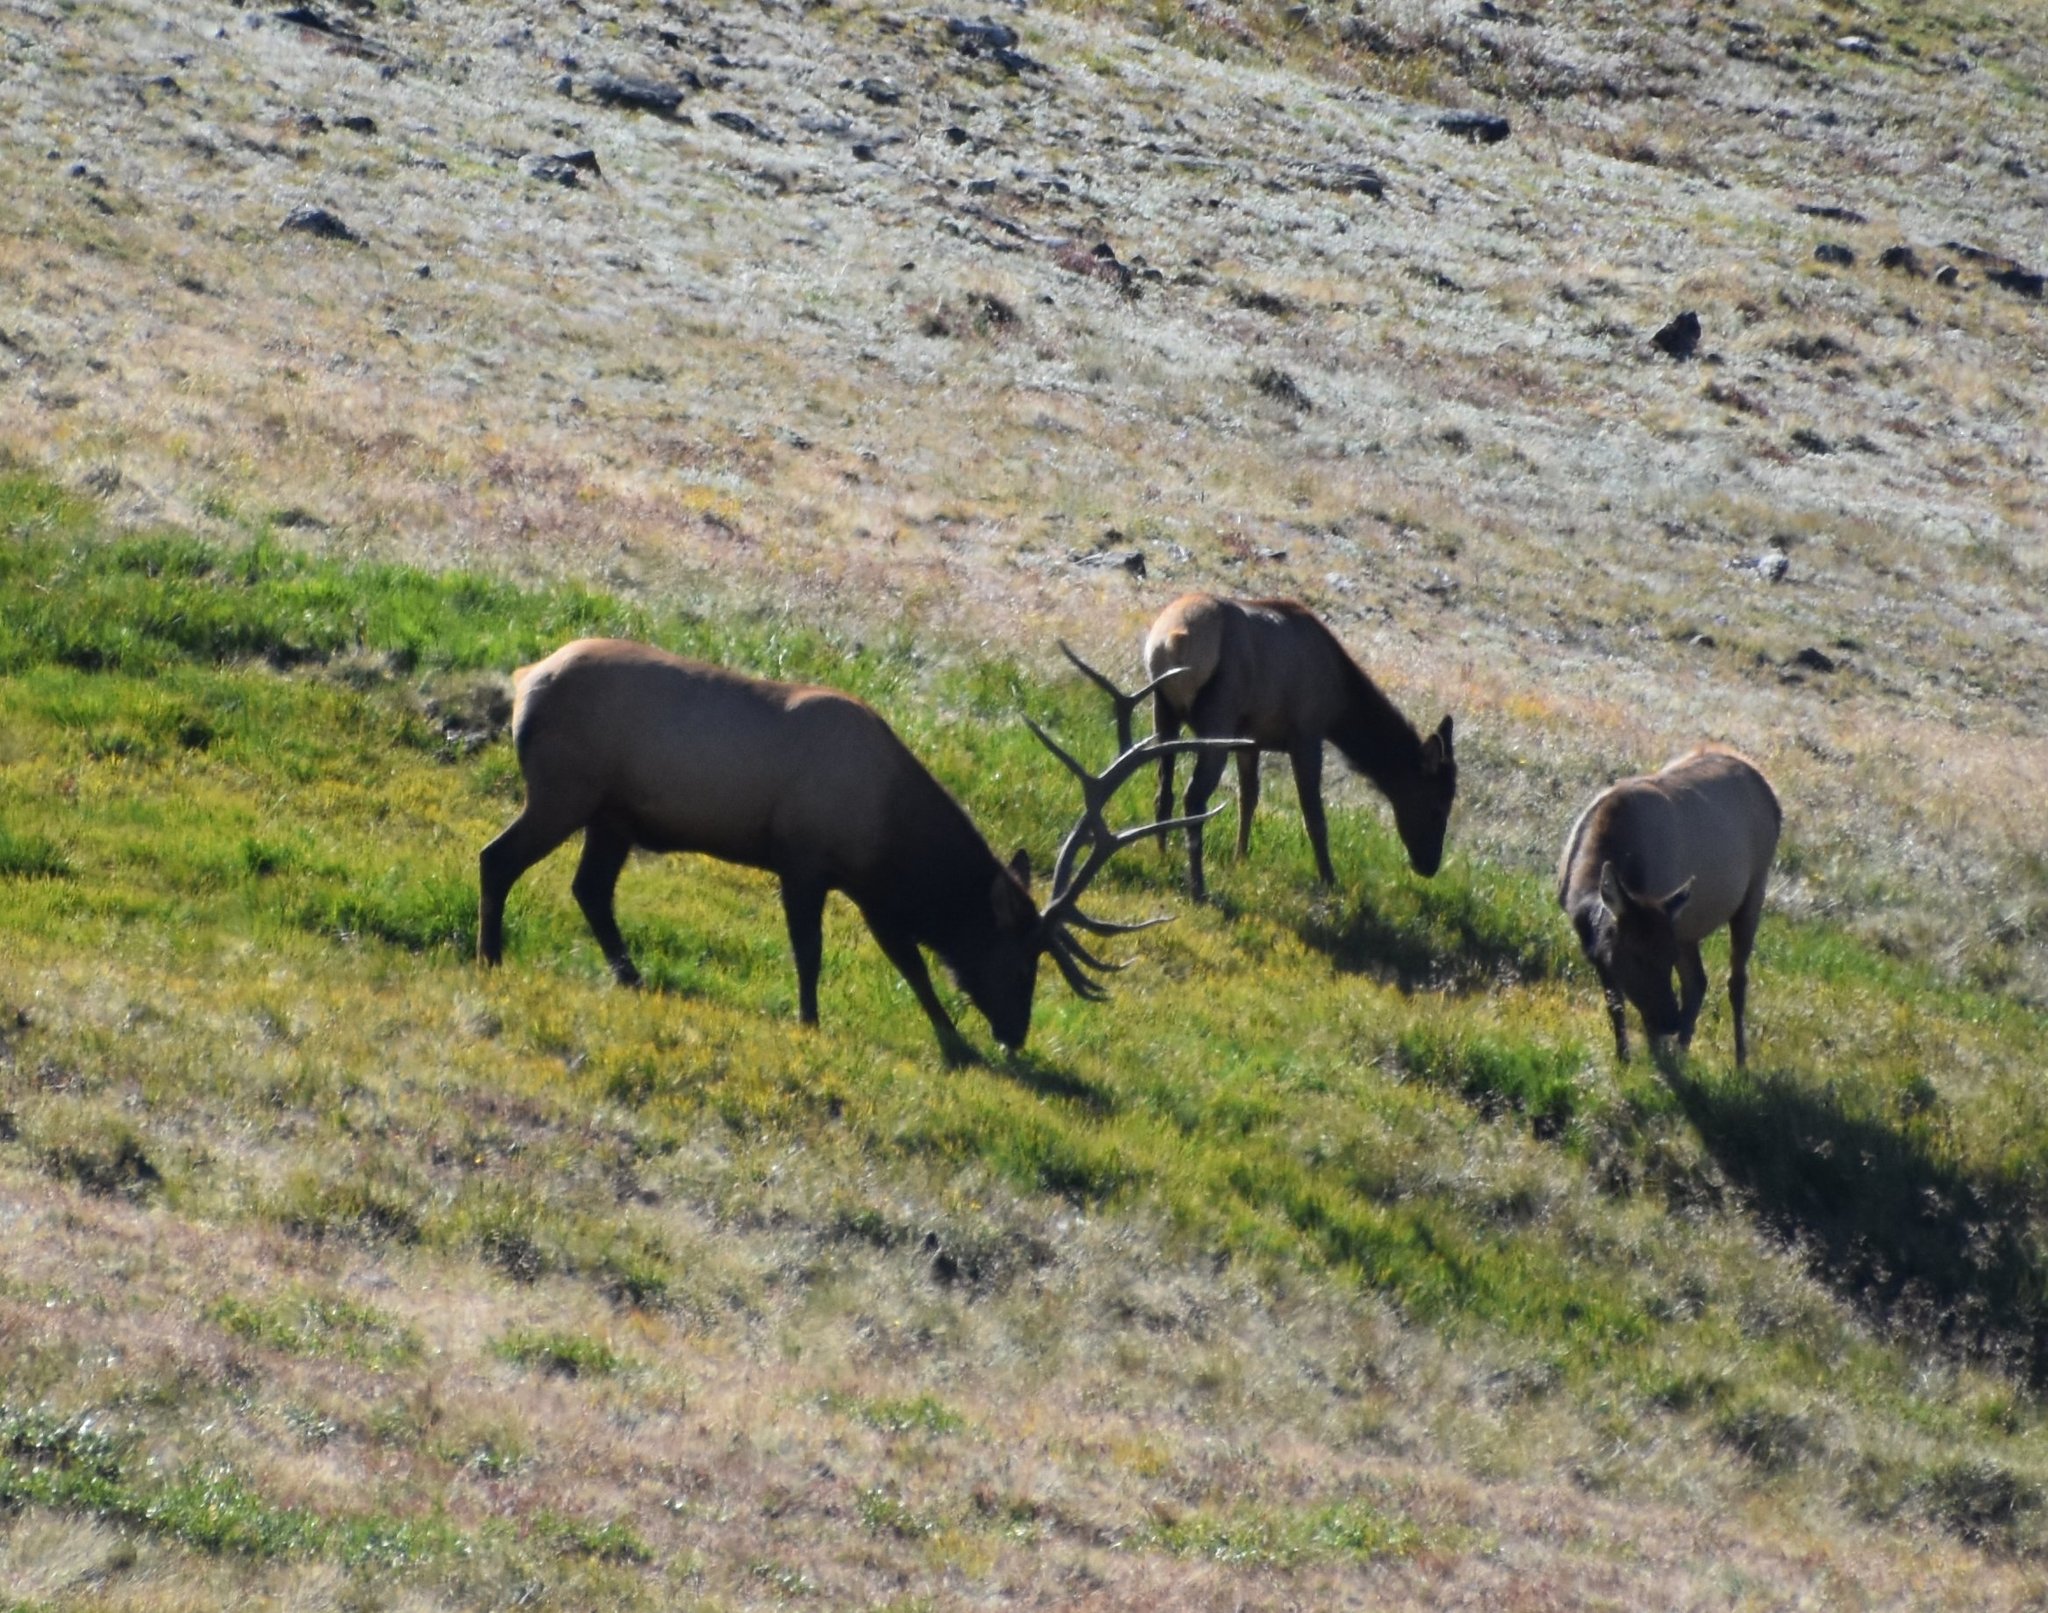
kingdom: Animalia
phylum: Chordata
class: Mammalia
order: Artiodactyla
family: Cervidae
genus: Cervus
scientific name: Cervus elaphus
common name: Red deer
